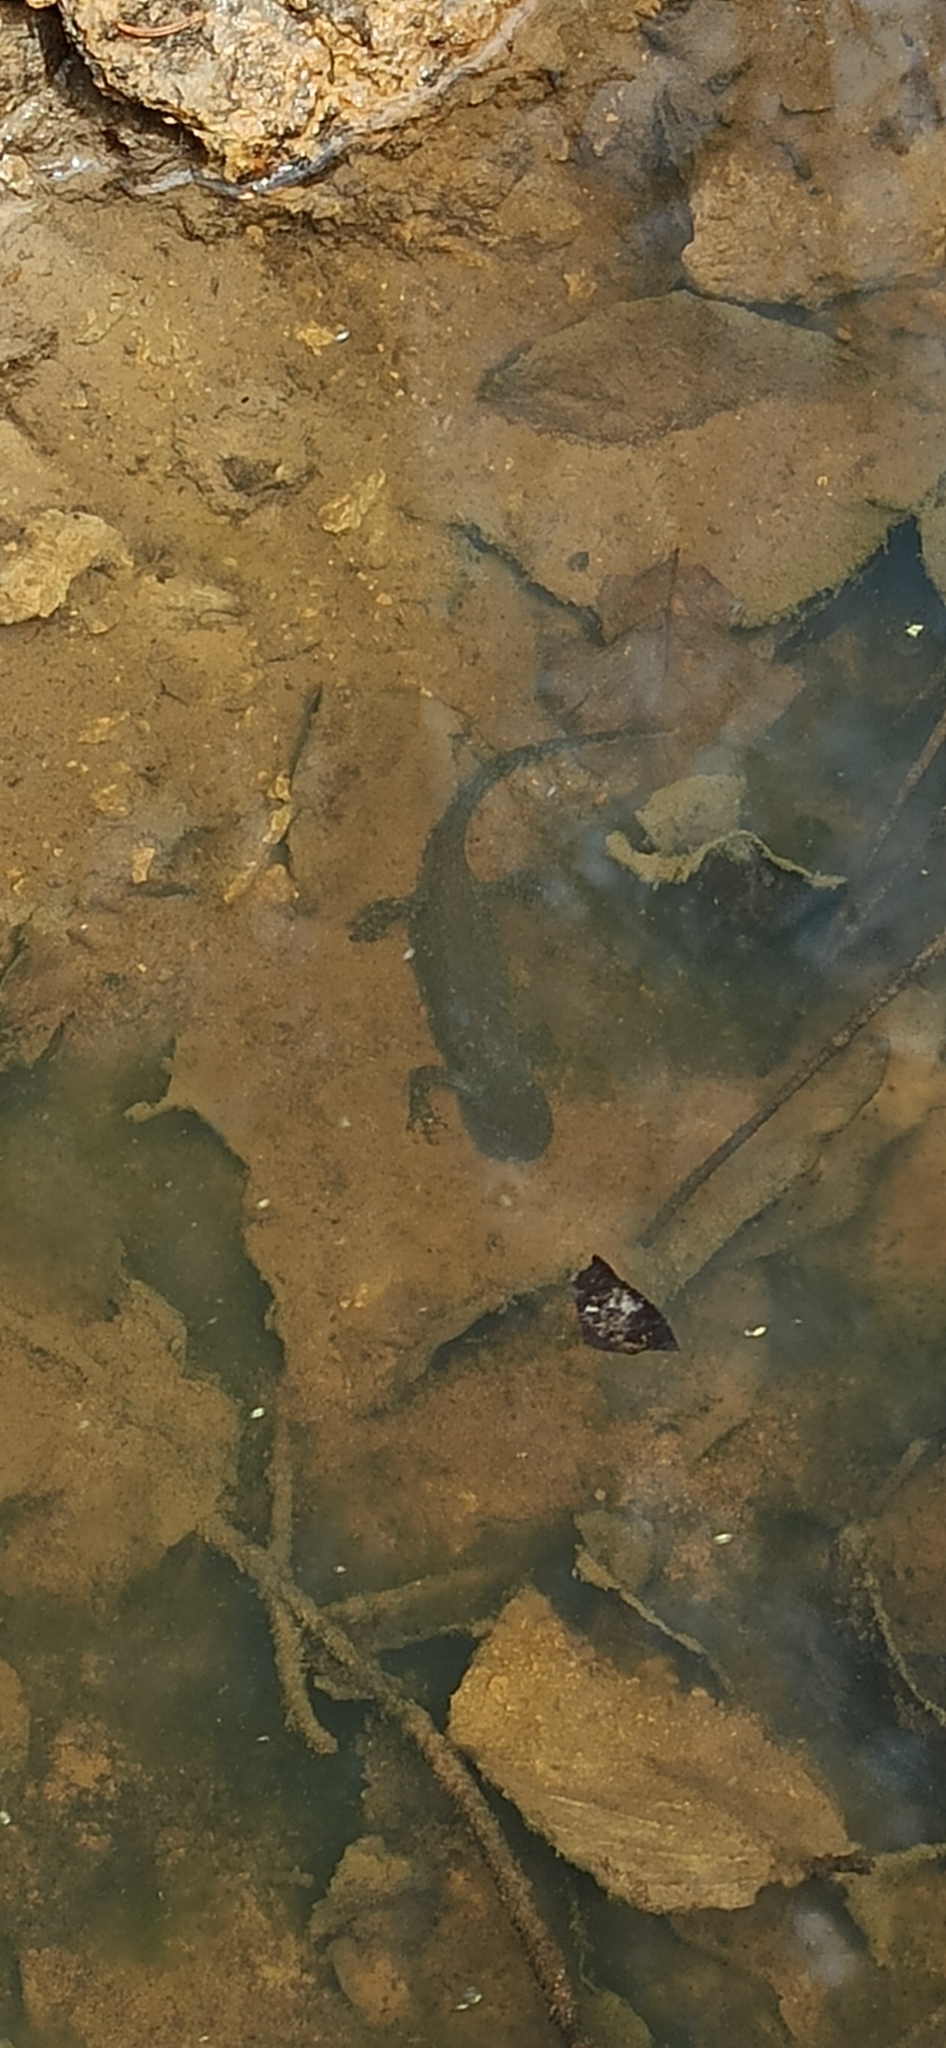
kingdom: Animalia
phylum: Chordata
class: Amphibia
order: Caudata
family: Salamandridae
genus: Ichthyosaura
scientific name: Ichthyosaura alpestris
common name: Alpine newt
